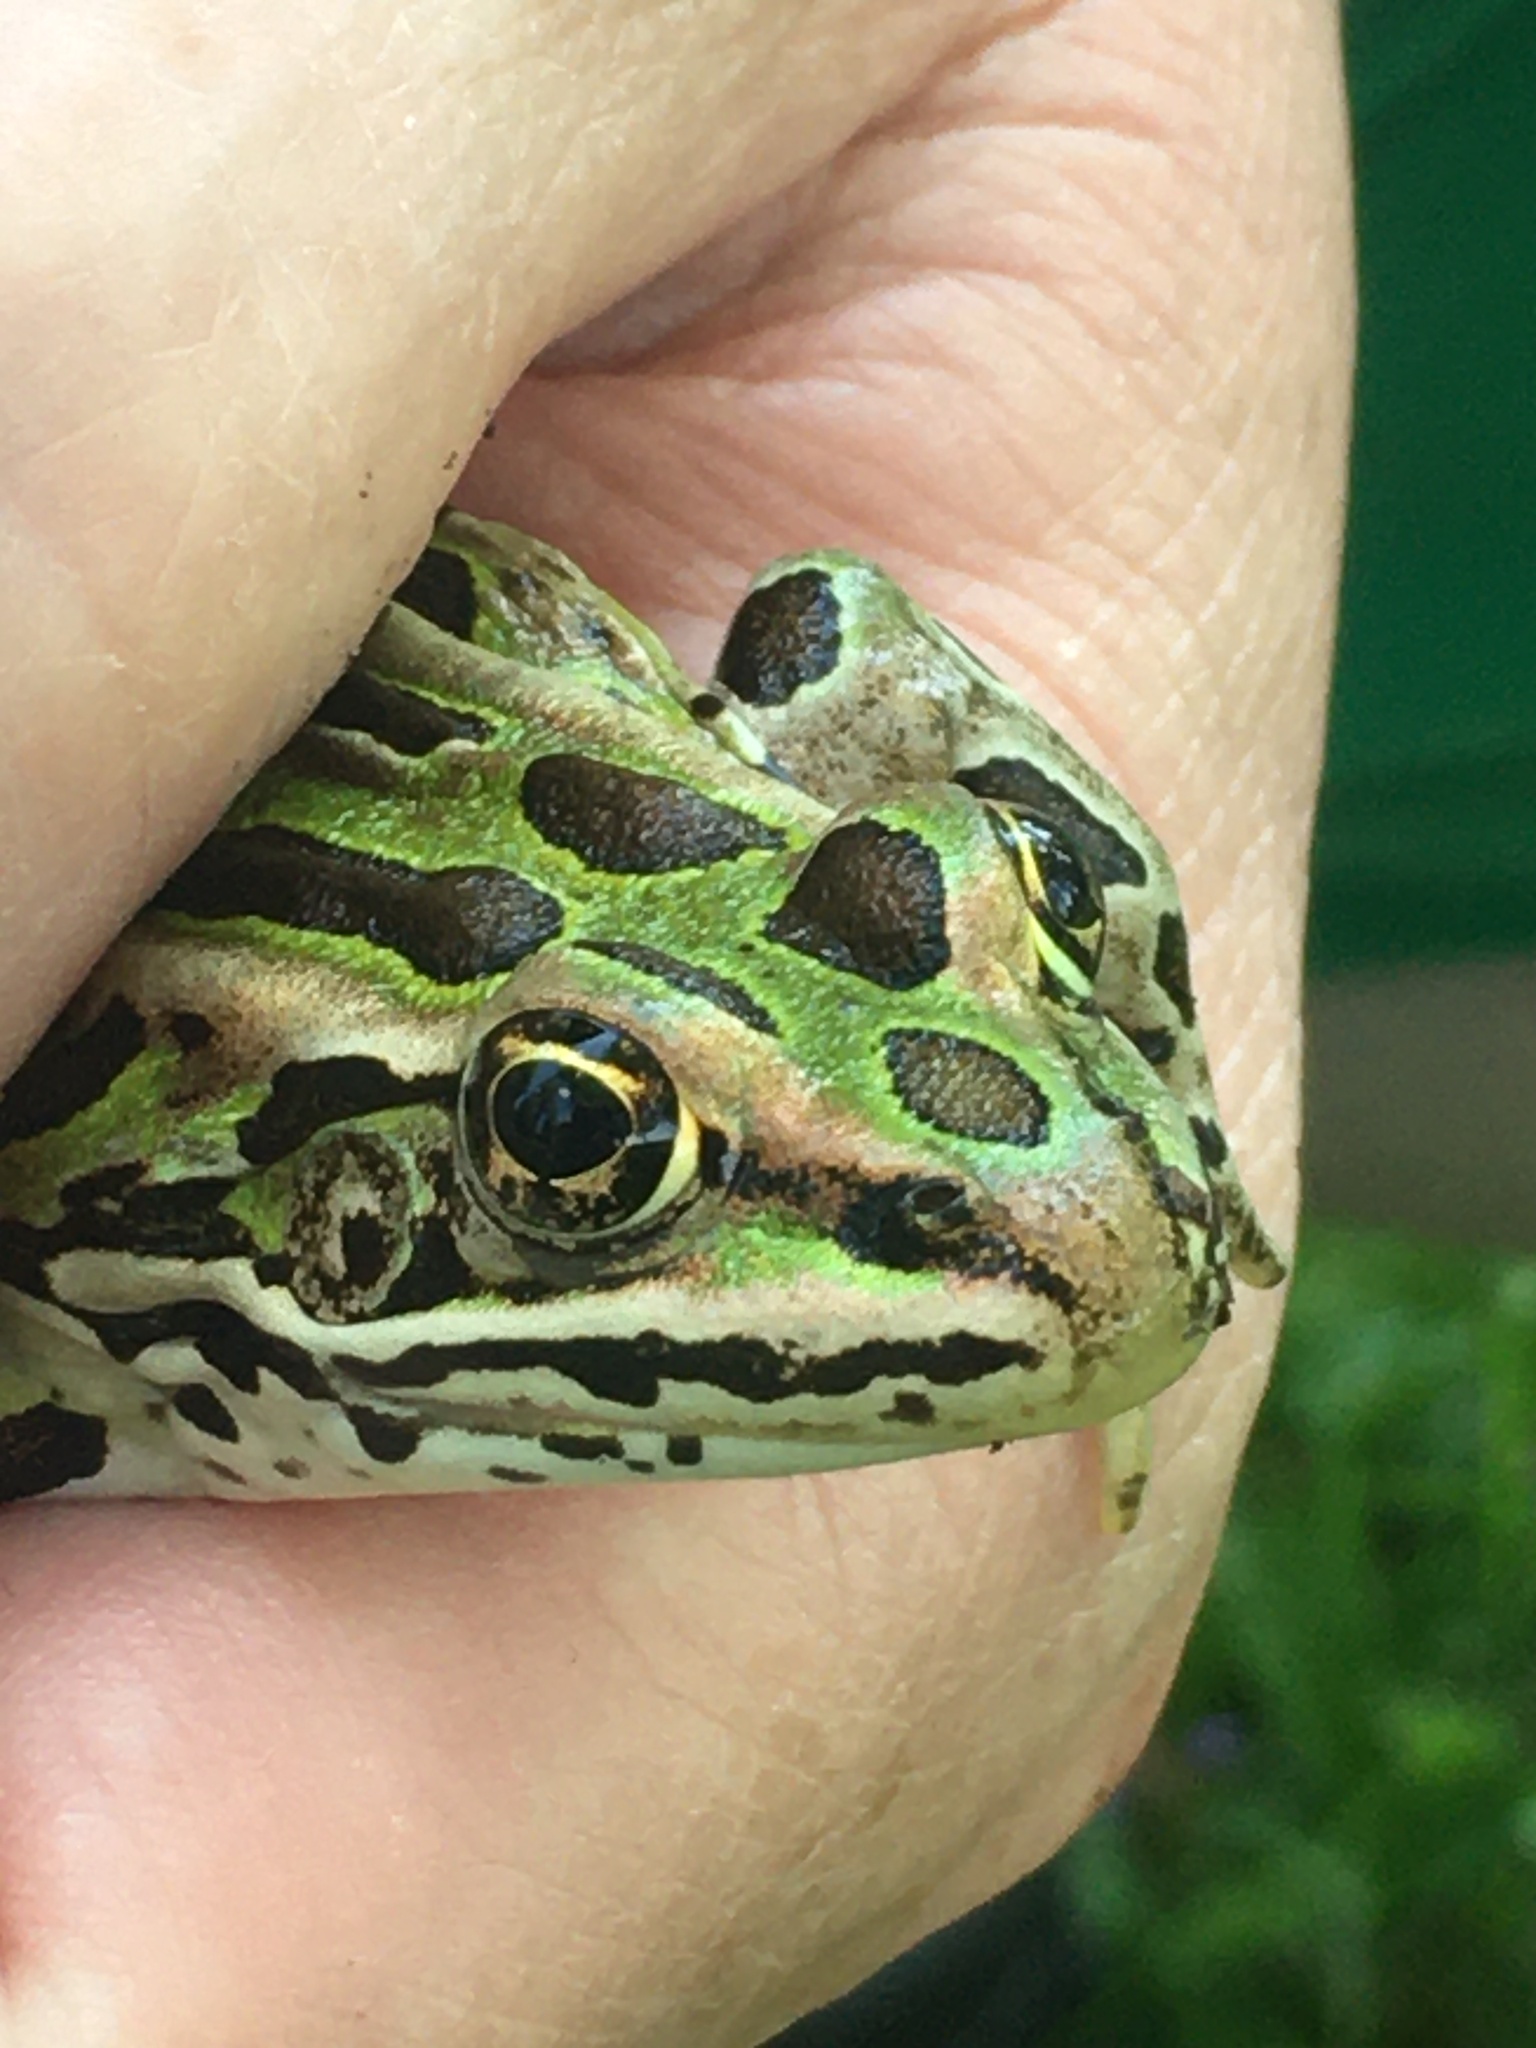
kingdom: Animalia
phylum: Chordata
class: Amphibia
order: Anura
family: Ranidae
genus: Lithobates
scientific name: Lithobates pipiens
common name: Northern leopard frog
